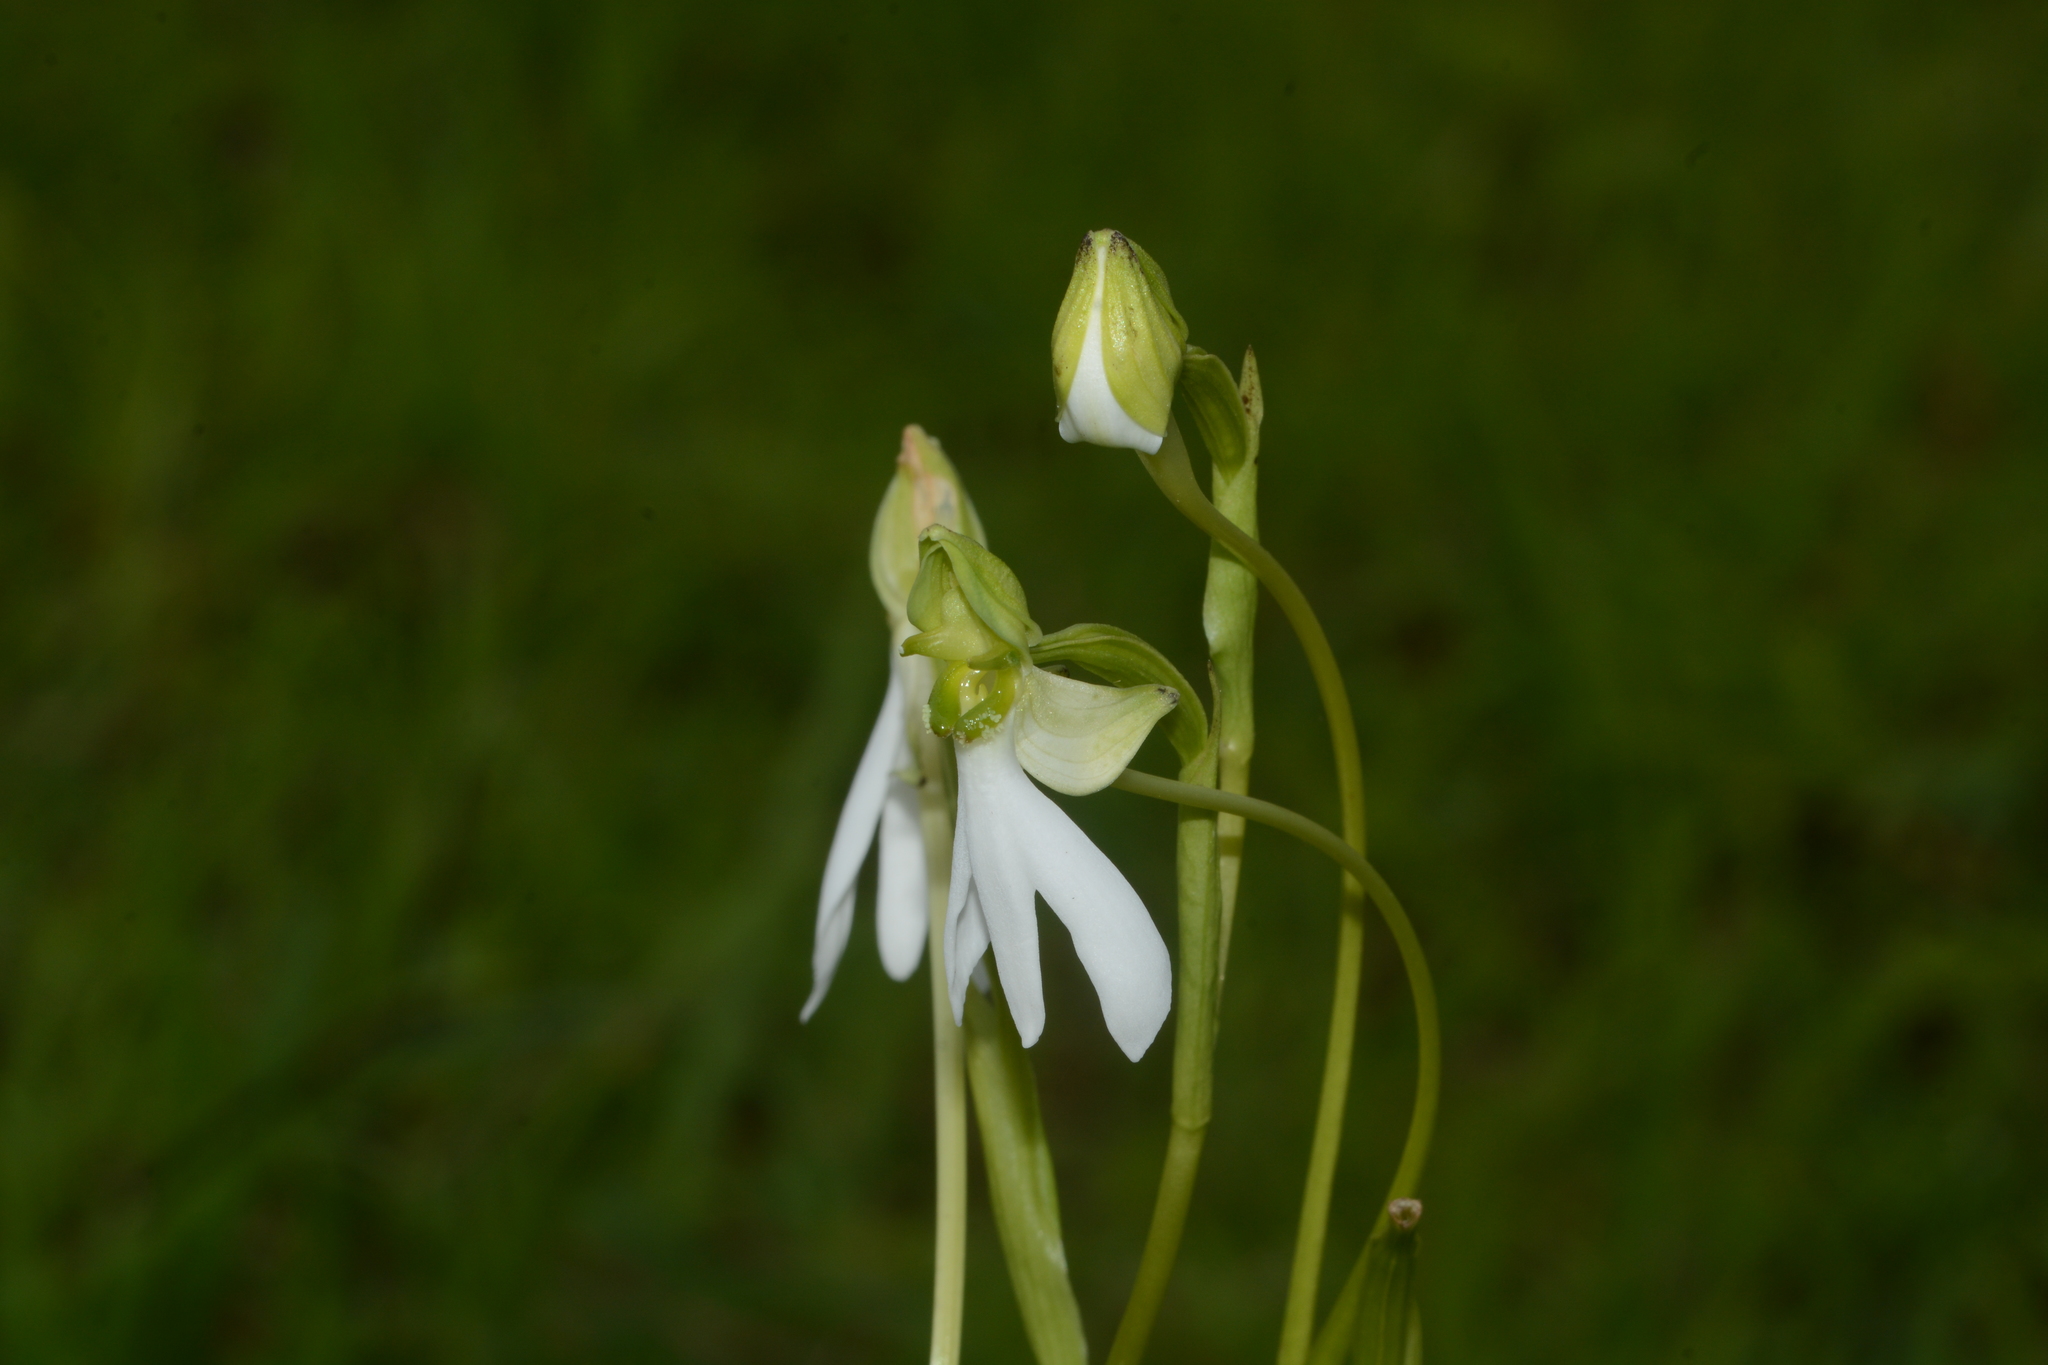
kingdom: Plantae
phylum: Tracheophyta
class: Liliopsida
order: Asparagales
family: Orchidaceae
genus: Habenaria
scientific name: Habenaria longicorniculata
